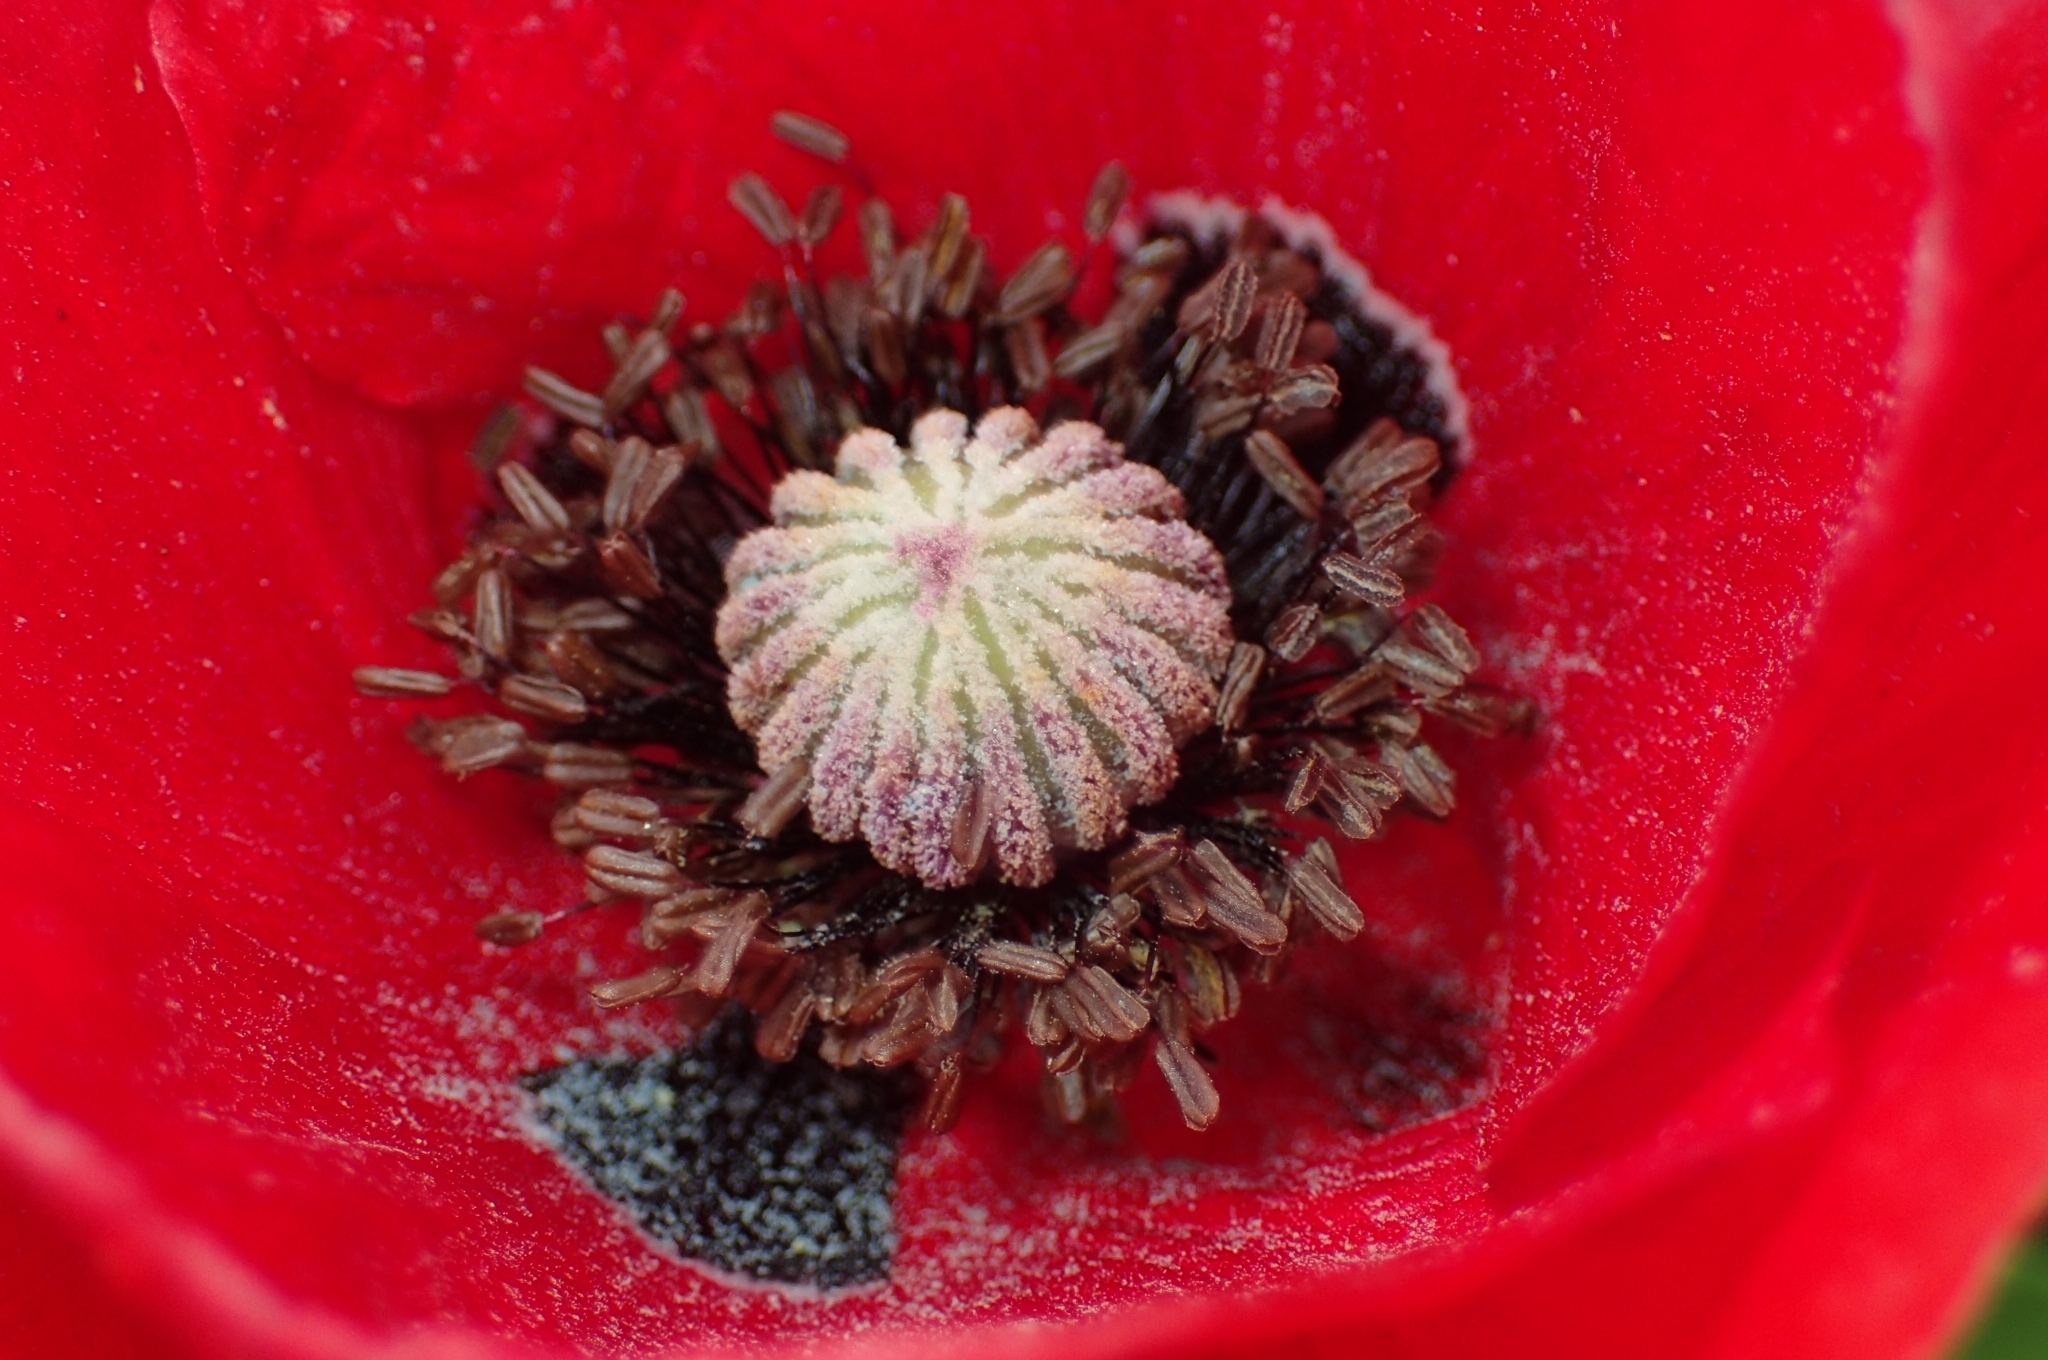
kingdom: Plantae
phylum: Tracheophyta
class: Magnoliopsida
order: Ranunculales
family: Papaveraceae
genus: Papaver
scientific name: Papaver rhoeas
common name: Corn poppy
